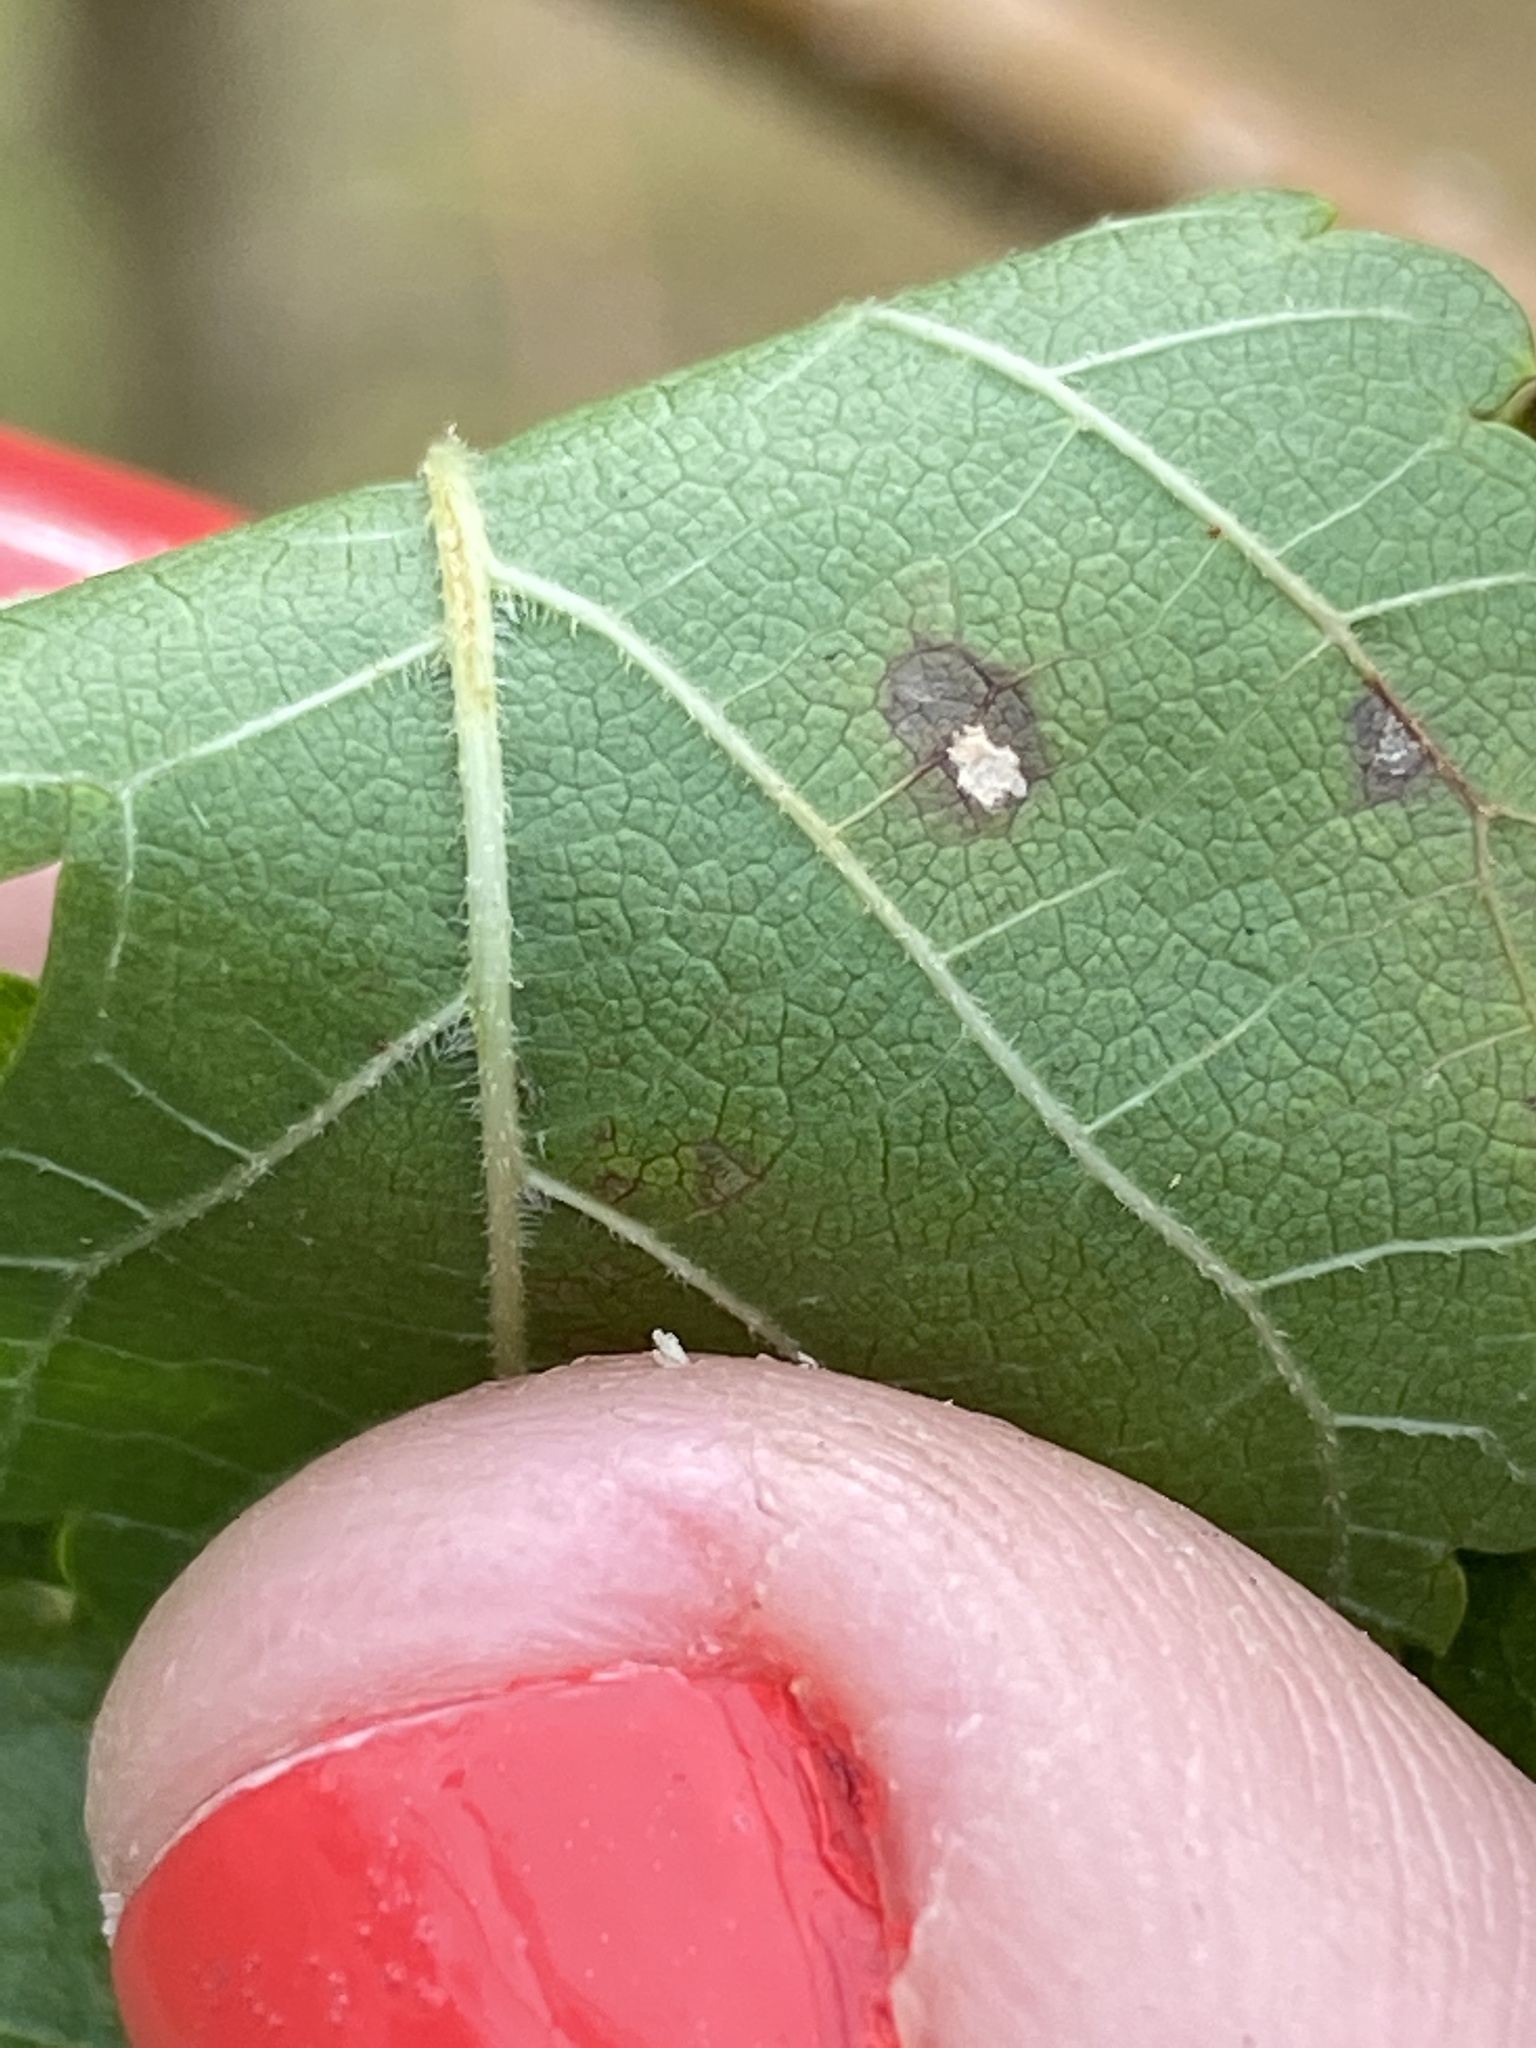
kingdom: Plantae
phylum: Tracheophyta
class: Magnoliopsida
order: Rosales
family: Moraceae
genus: Morus
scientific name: Morus alba
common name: White mulberry
